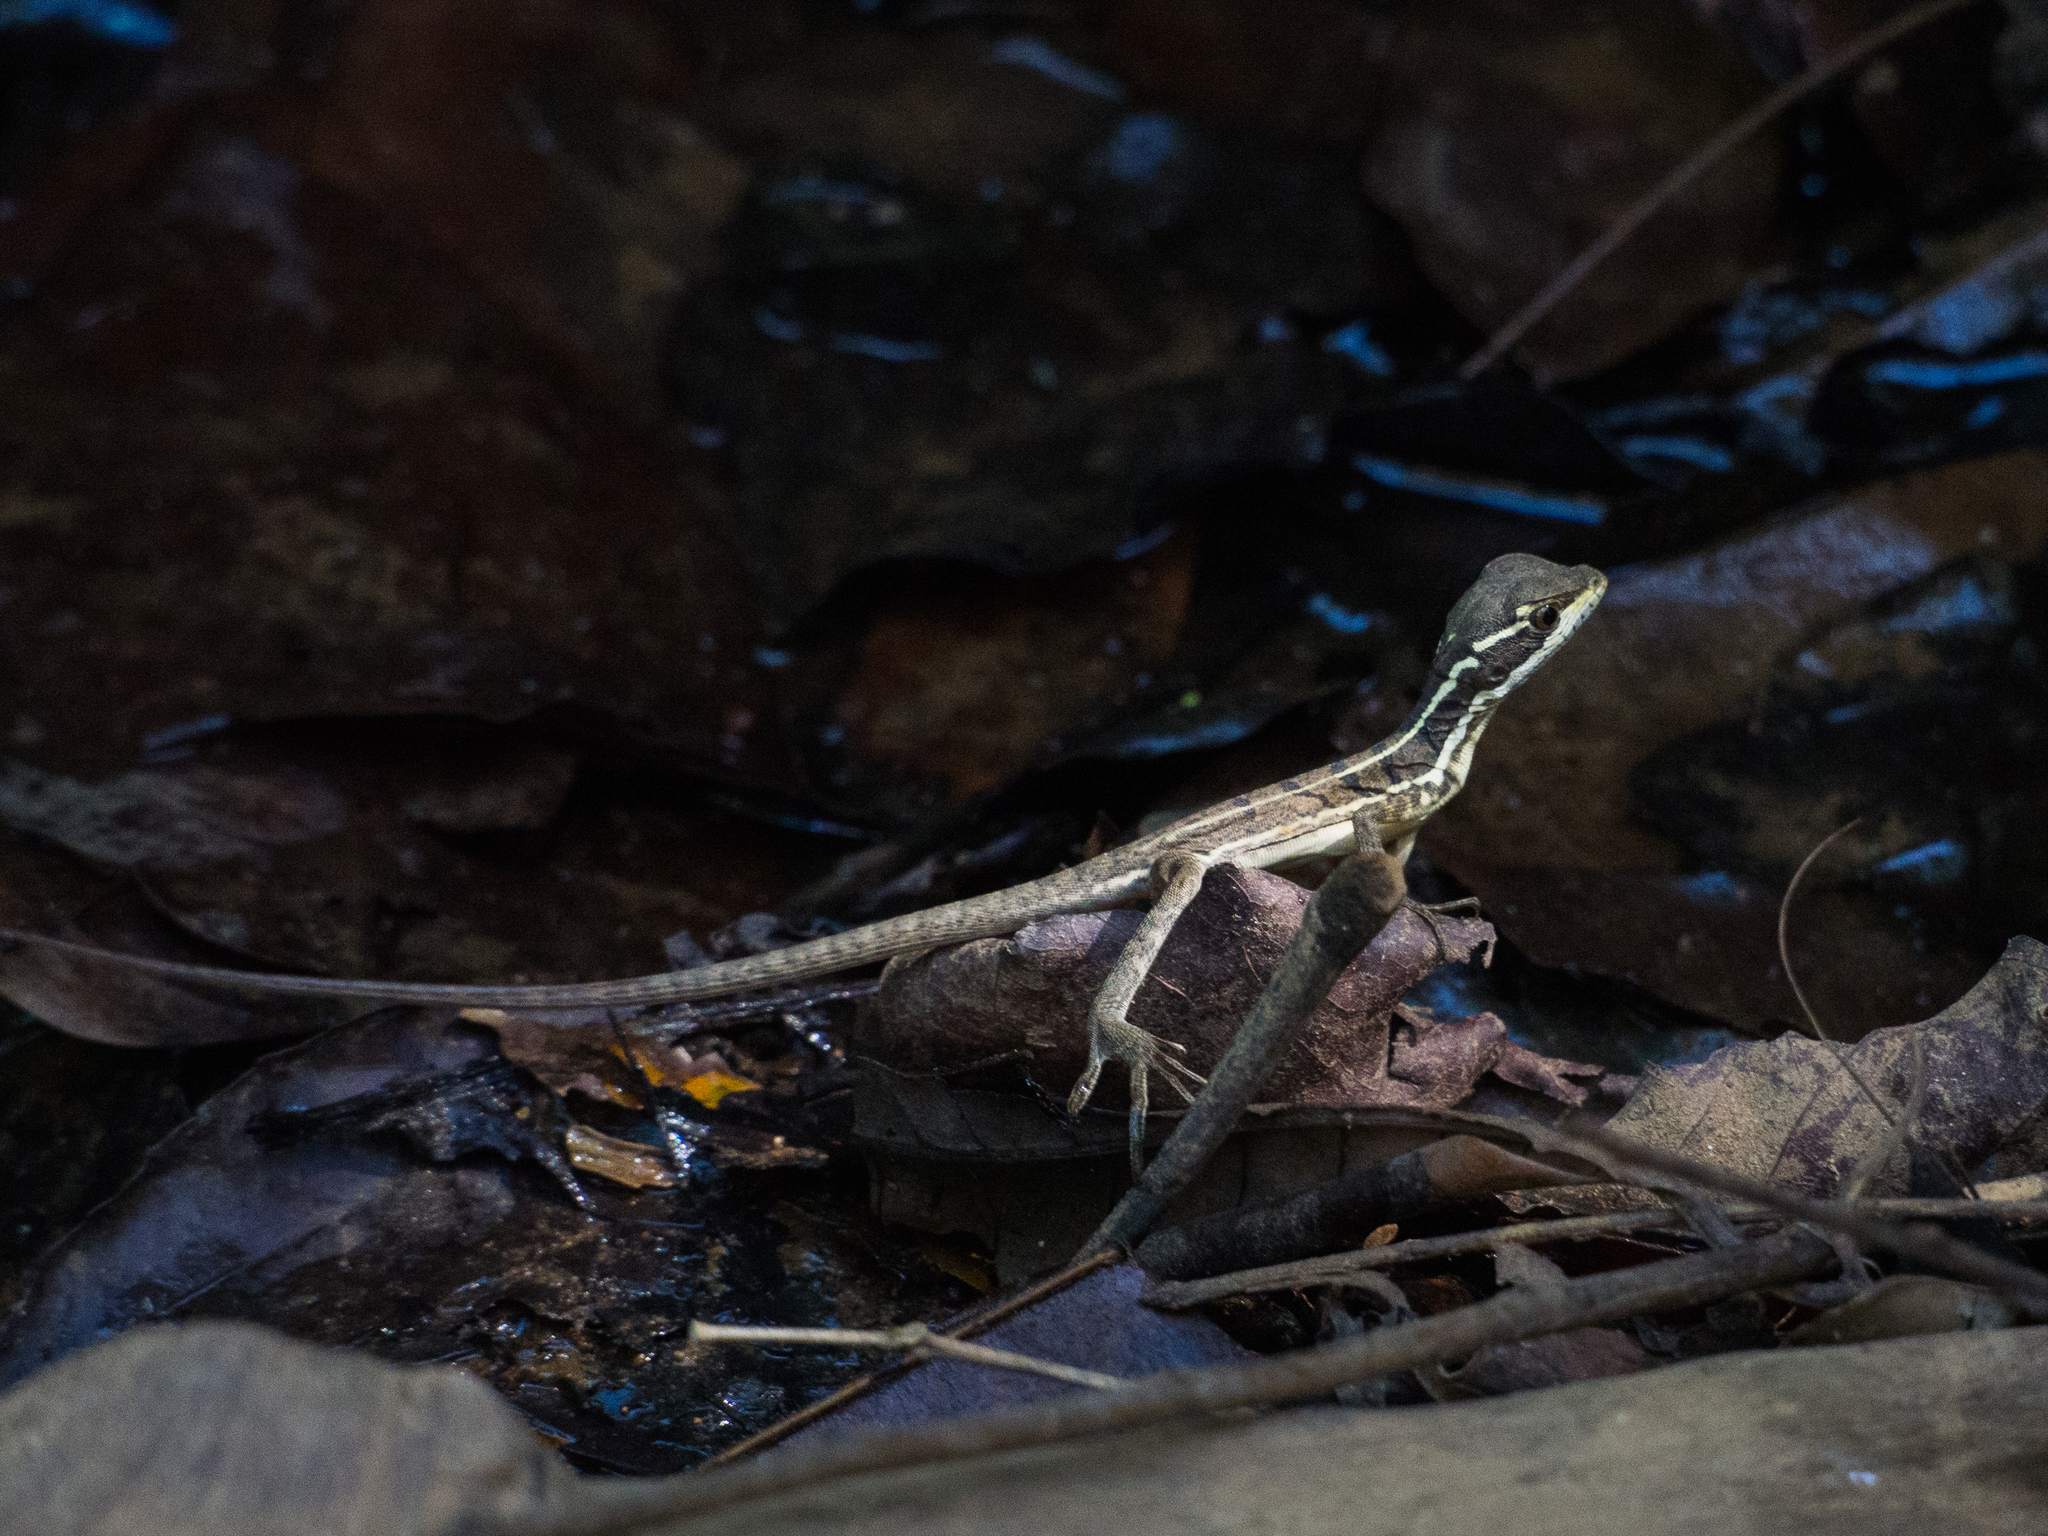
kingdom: Animalia
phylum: Chordata
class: Squamata
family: Corytophanidae
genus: Basiliscus
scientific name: Basiliscus basiliscus
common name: Common basilisk
